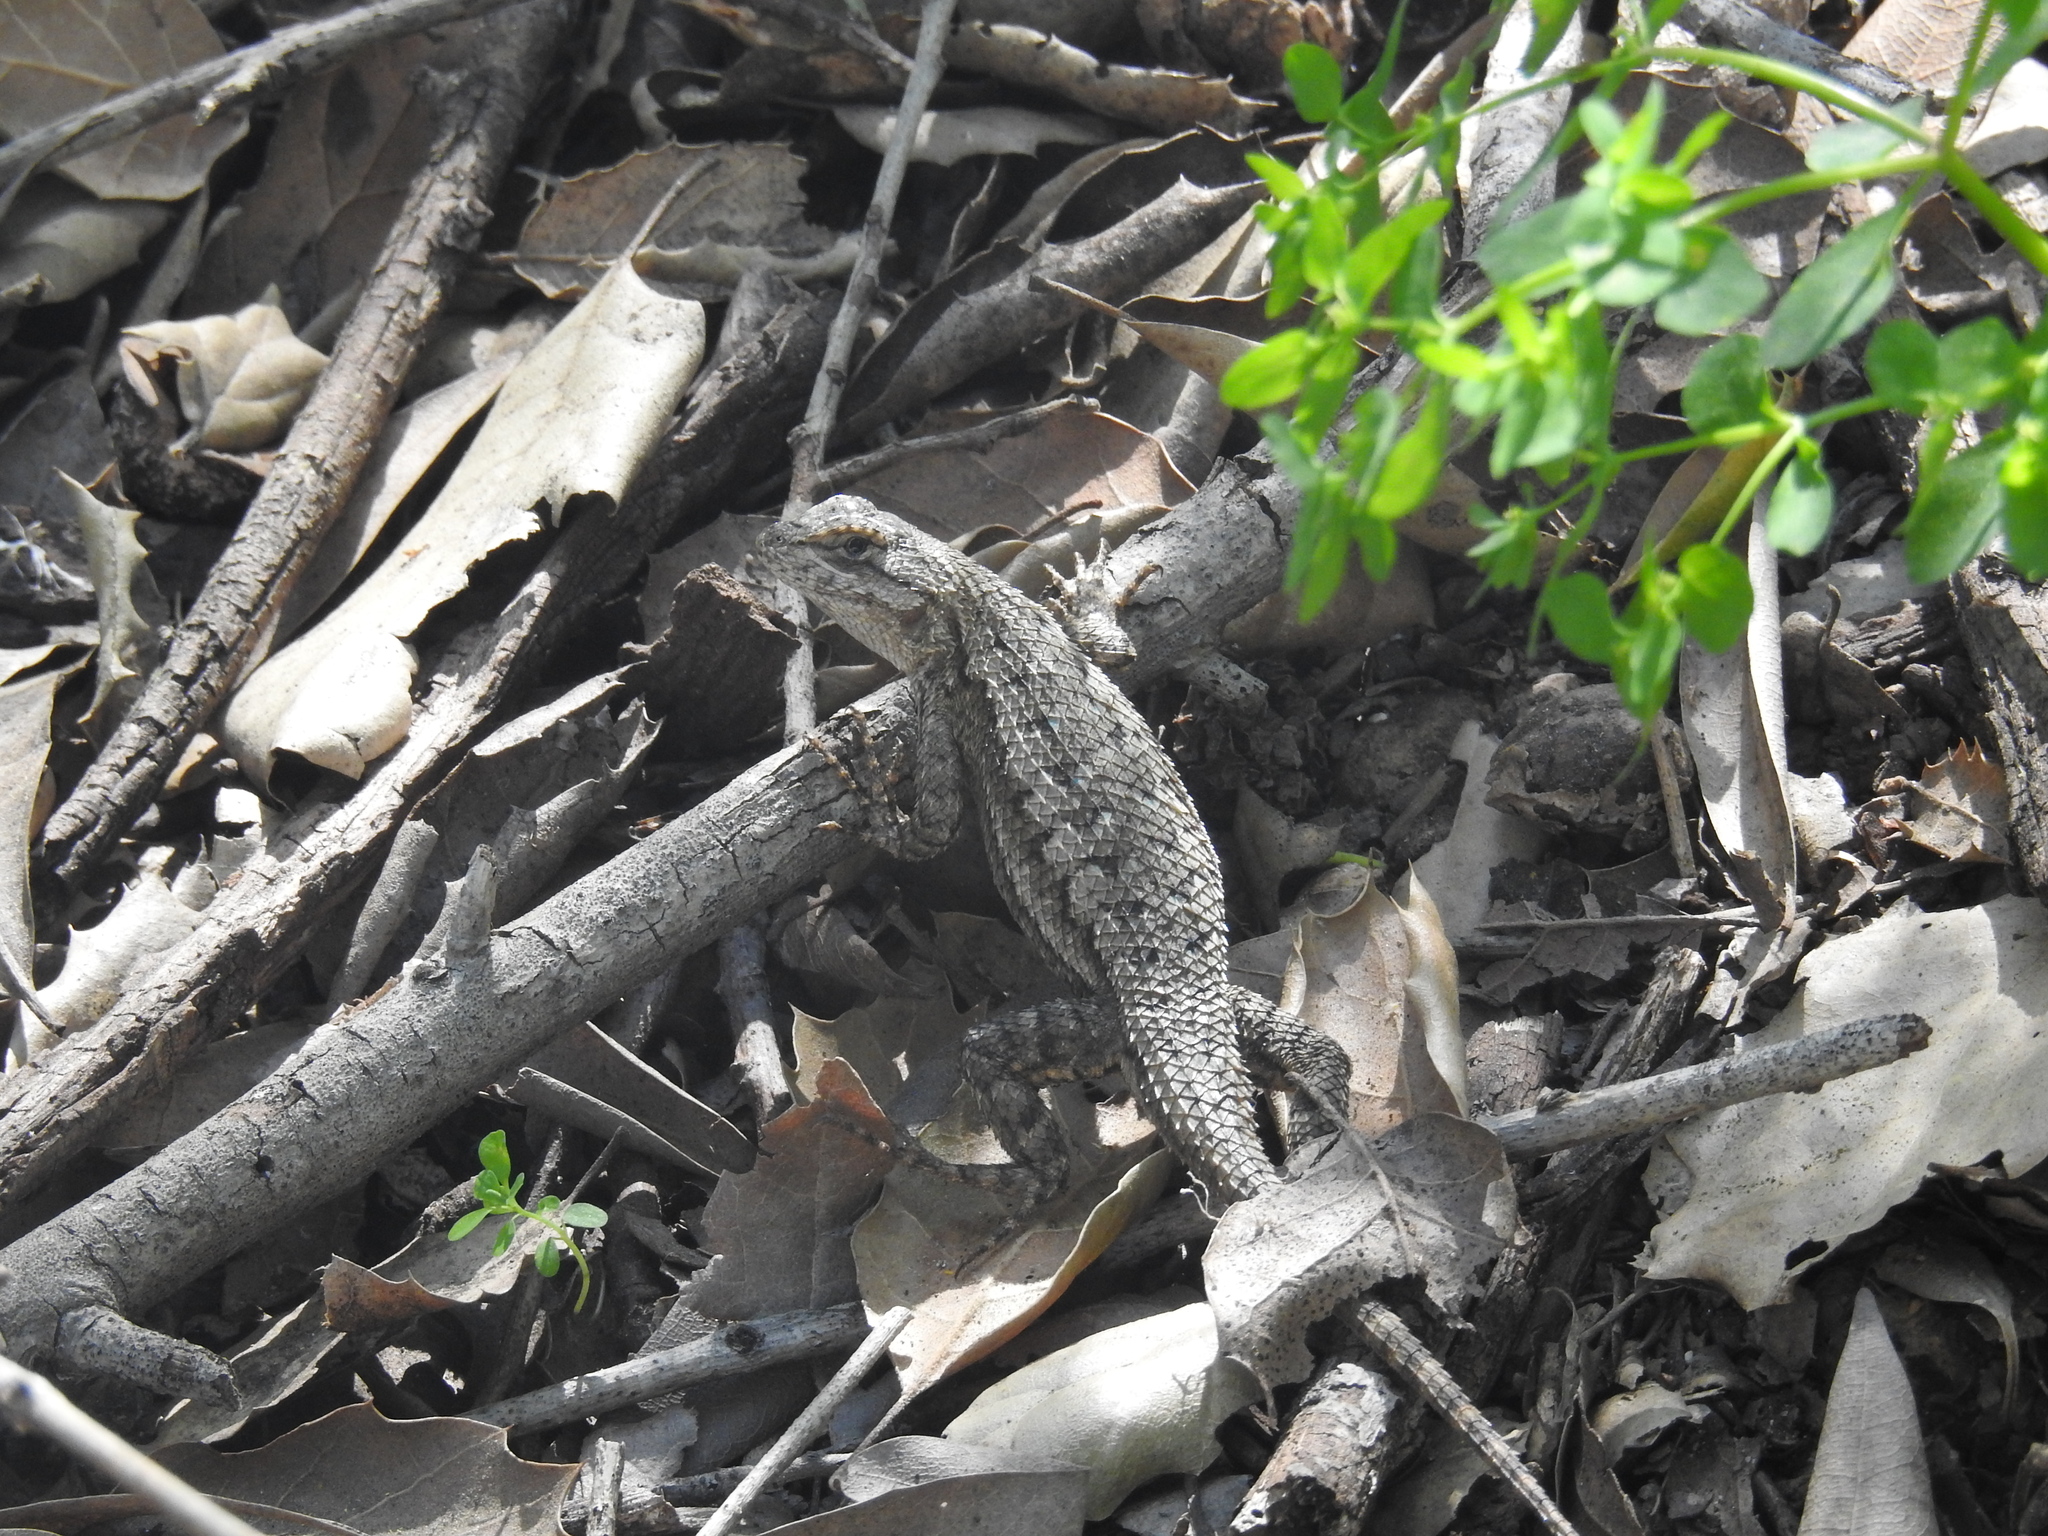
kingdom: Animalia
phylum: Chordata
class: Squamata
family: Phrynosomatidae
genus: Sceloporus
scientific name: Sceloporus occidentalis
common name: Western fence lizard
